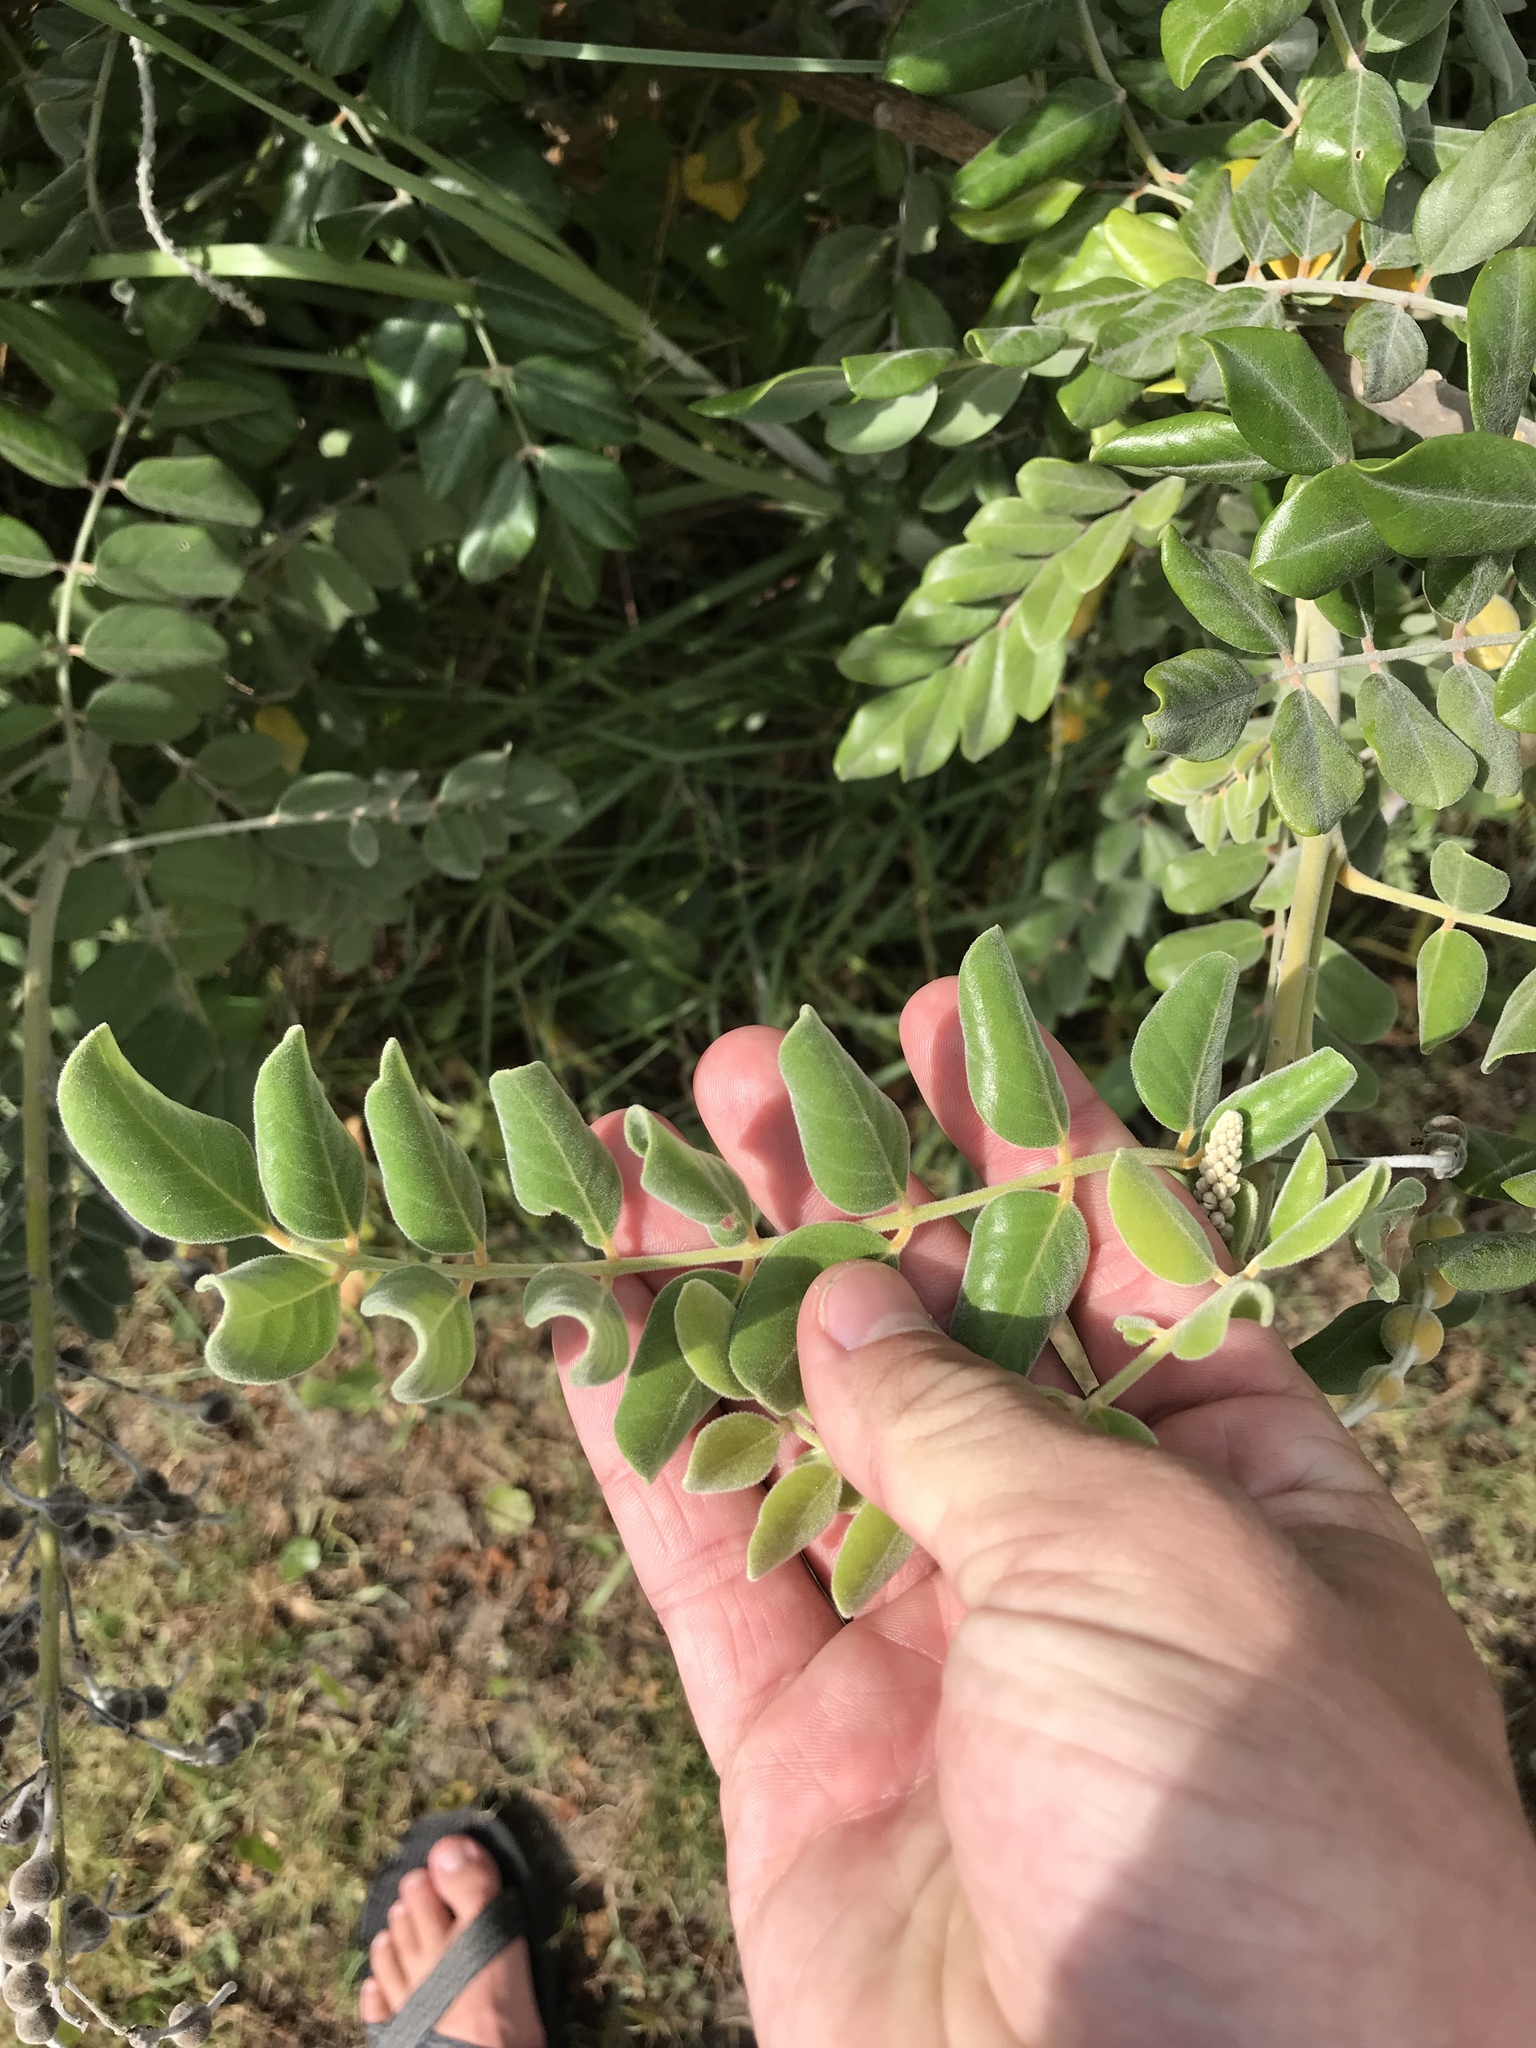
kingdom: Plantae
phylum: Tracheophyta
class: Magnoliopsida
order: Fabales
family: Fabaceae
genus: Sophora
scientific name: Sophora tomentosa
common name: Yellow necklacepod
